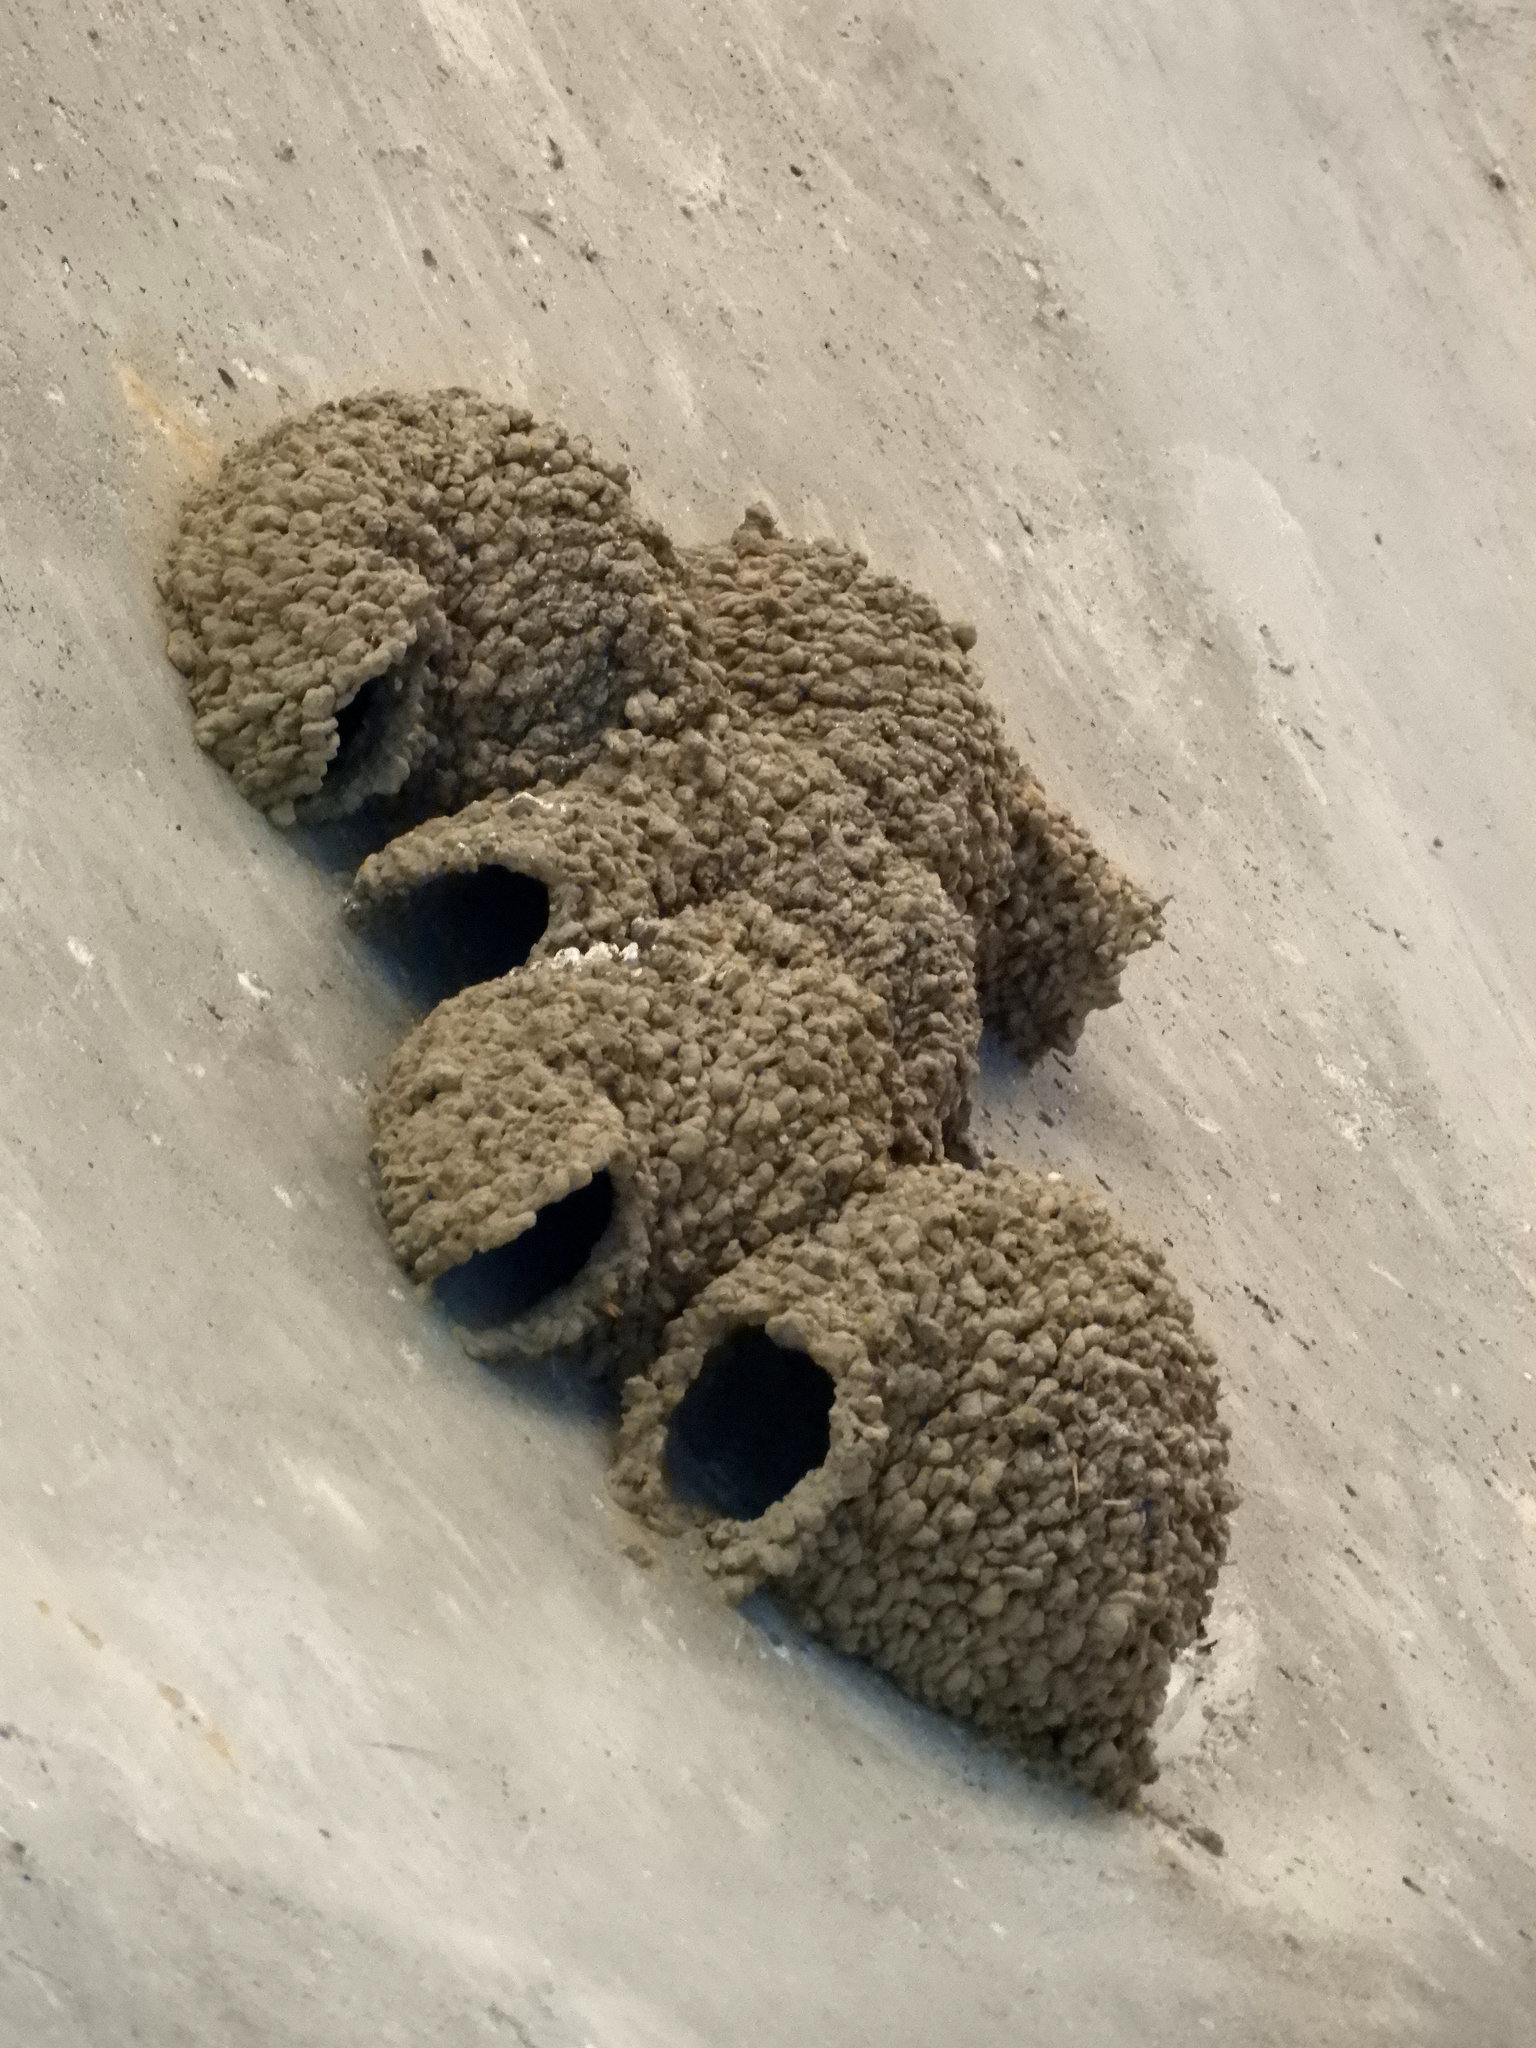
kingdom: Animalia
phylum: Chordata
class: Aves
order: Passeriformes
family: Hirundinidae
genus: Petrochelidon
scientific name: Petrochelidon pyrrhonota
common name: American cliff swallow
